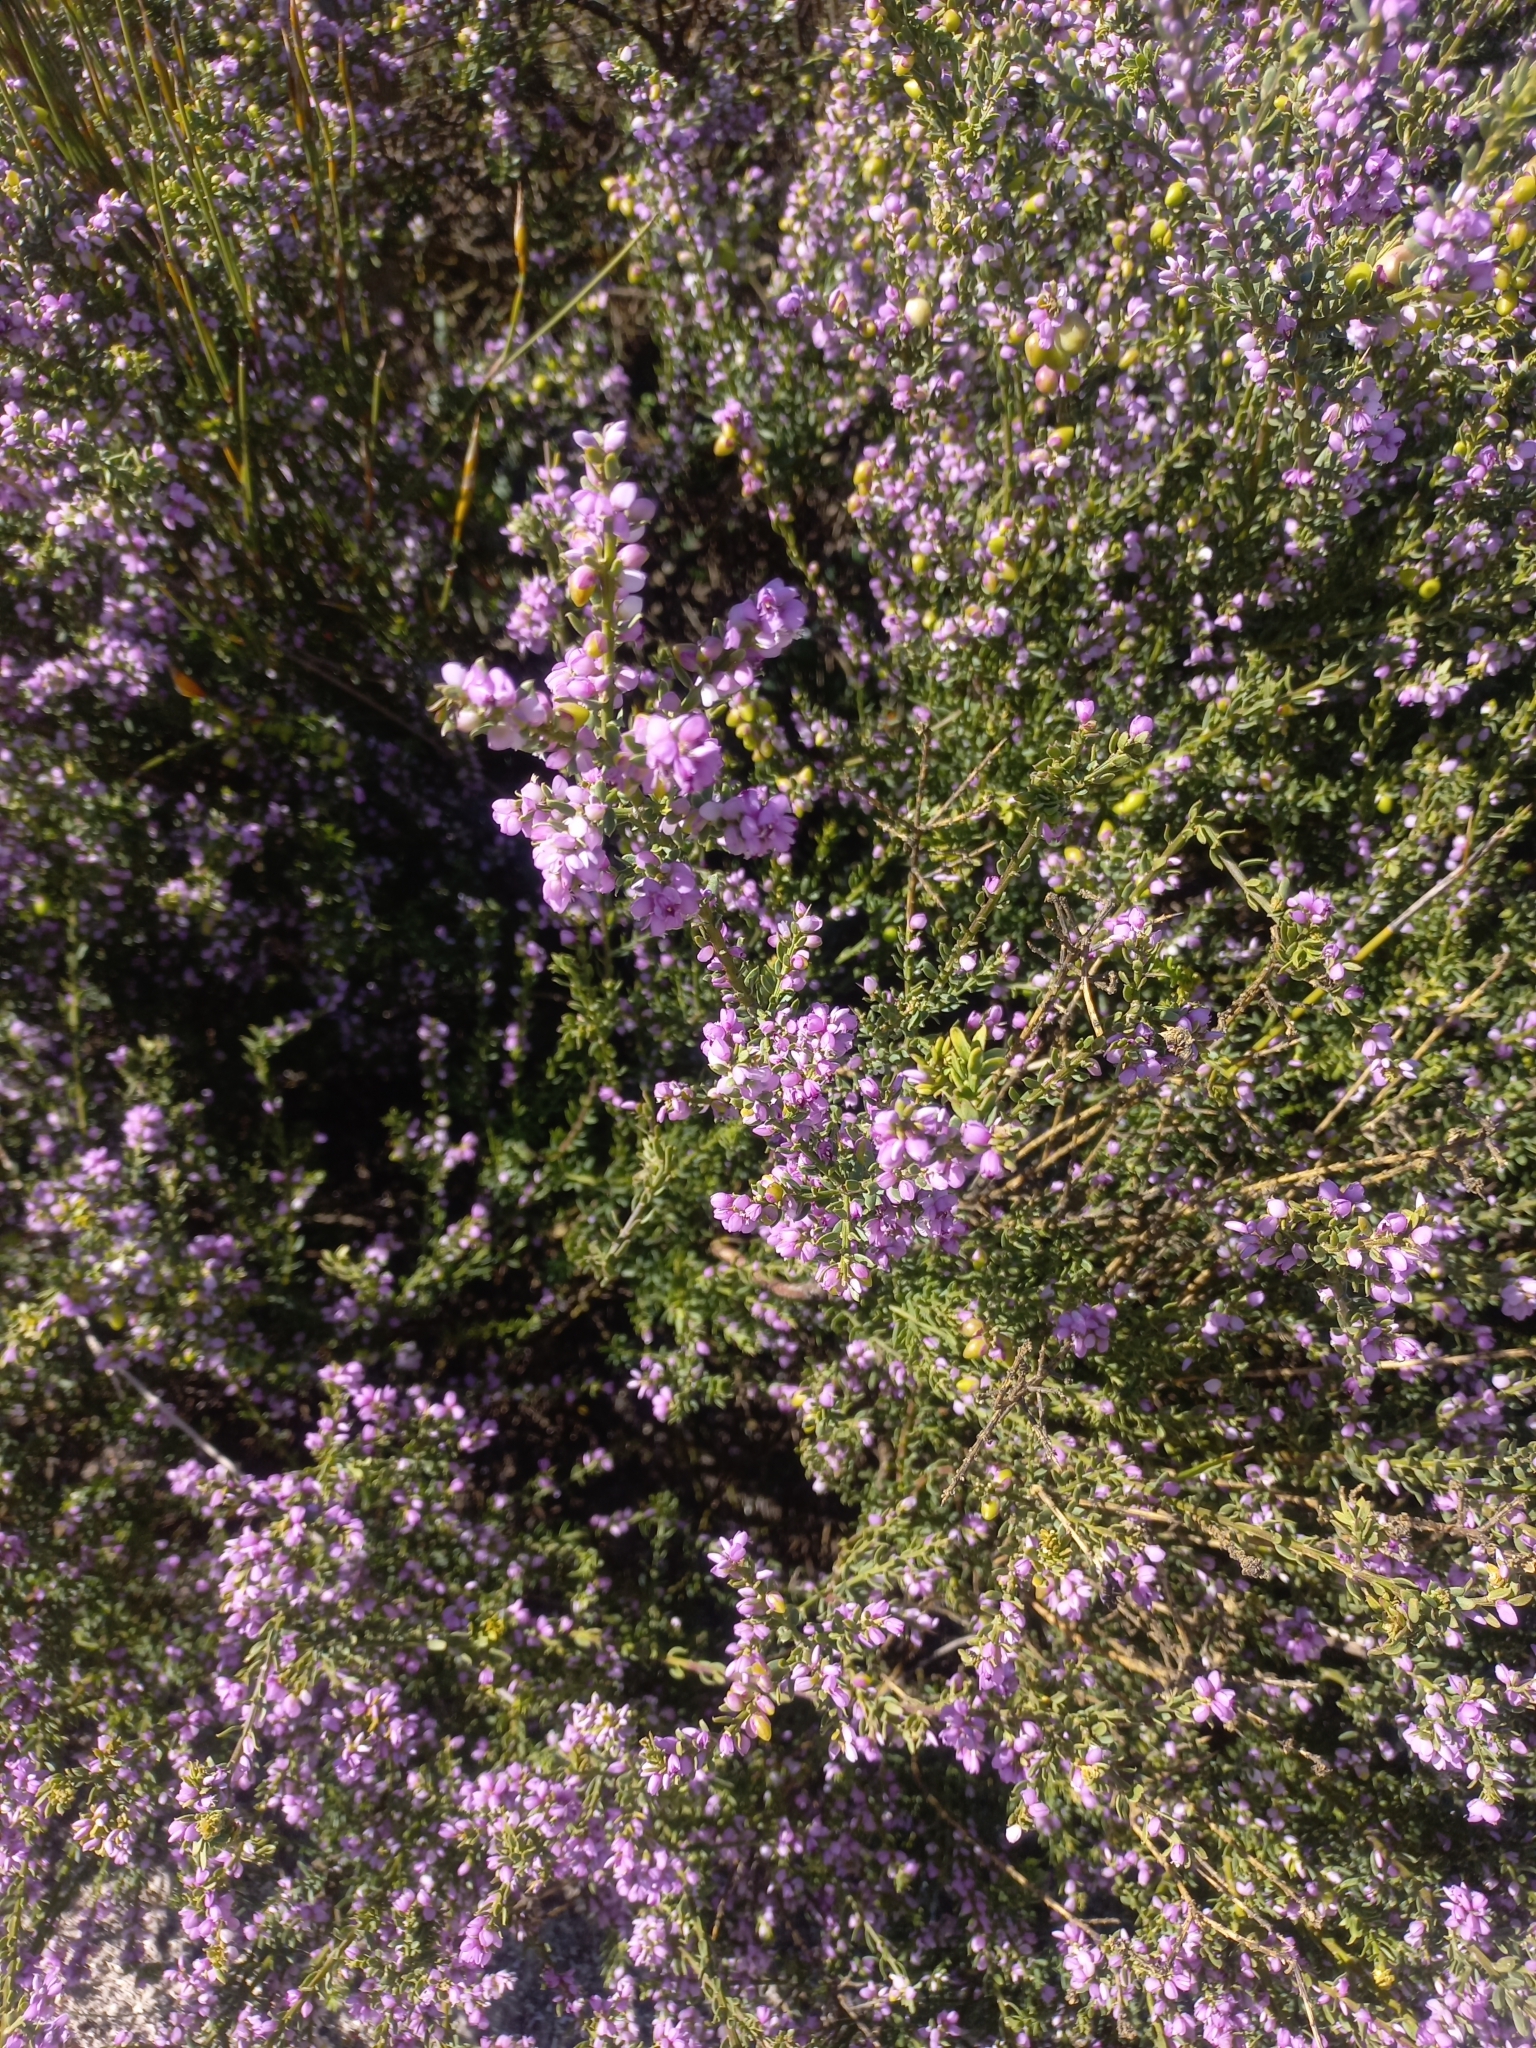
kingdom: Plantae
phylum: Tracheophyta
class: Magnoliopsida
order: Fabales
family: Polygalaceae
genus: Muraltia
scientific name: Muraltia spinosa
